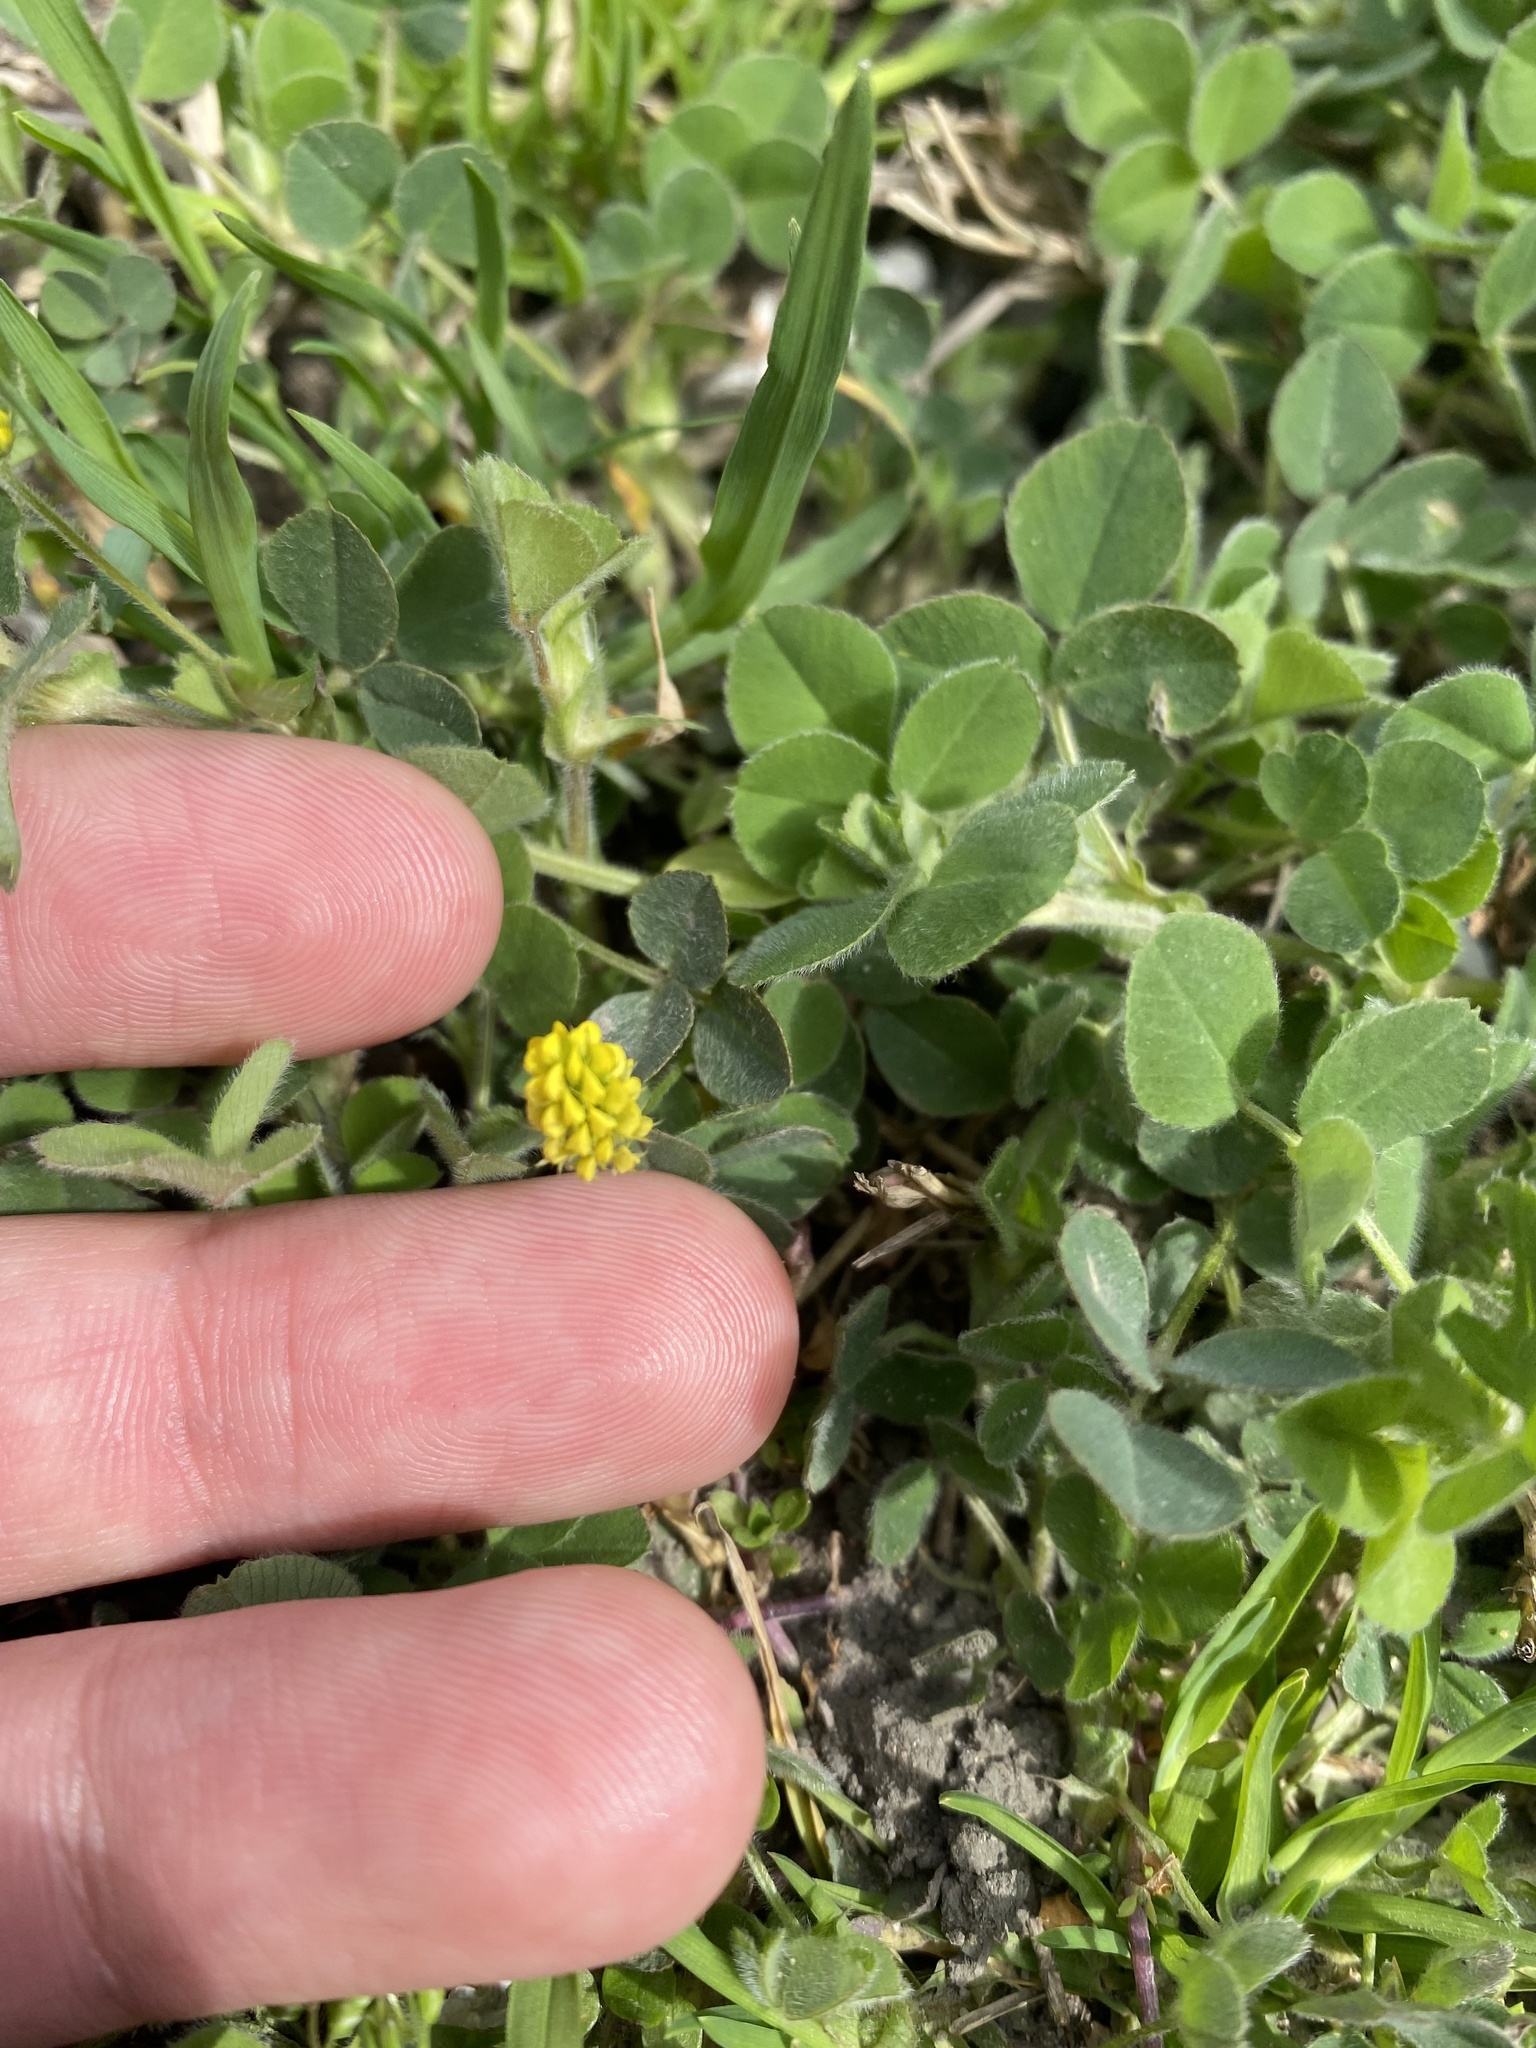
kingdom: Plantae
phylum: Tracheophyta
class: Magnoliopsida
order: Fabales
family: Fabaceae
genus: Medicago
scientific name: Medicago lupulina
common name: Black medick
